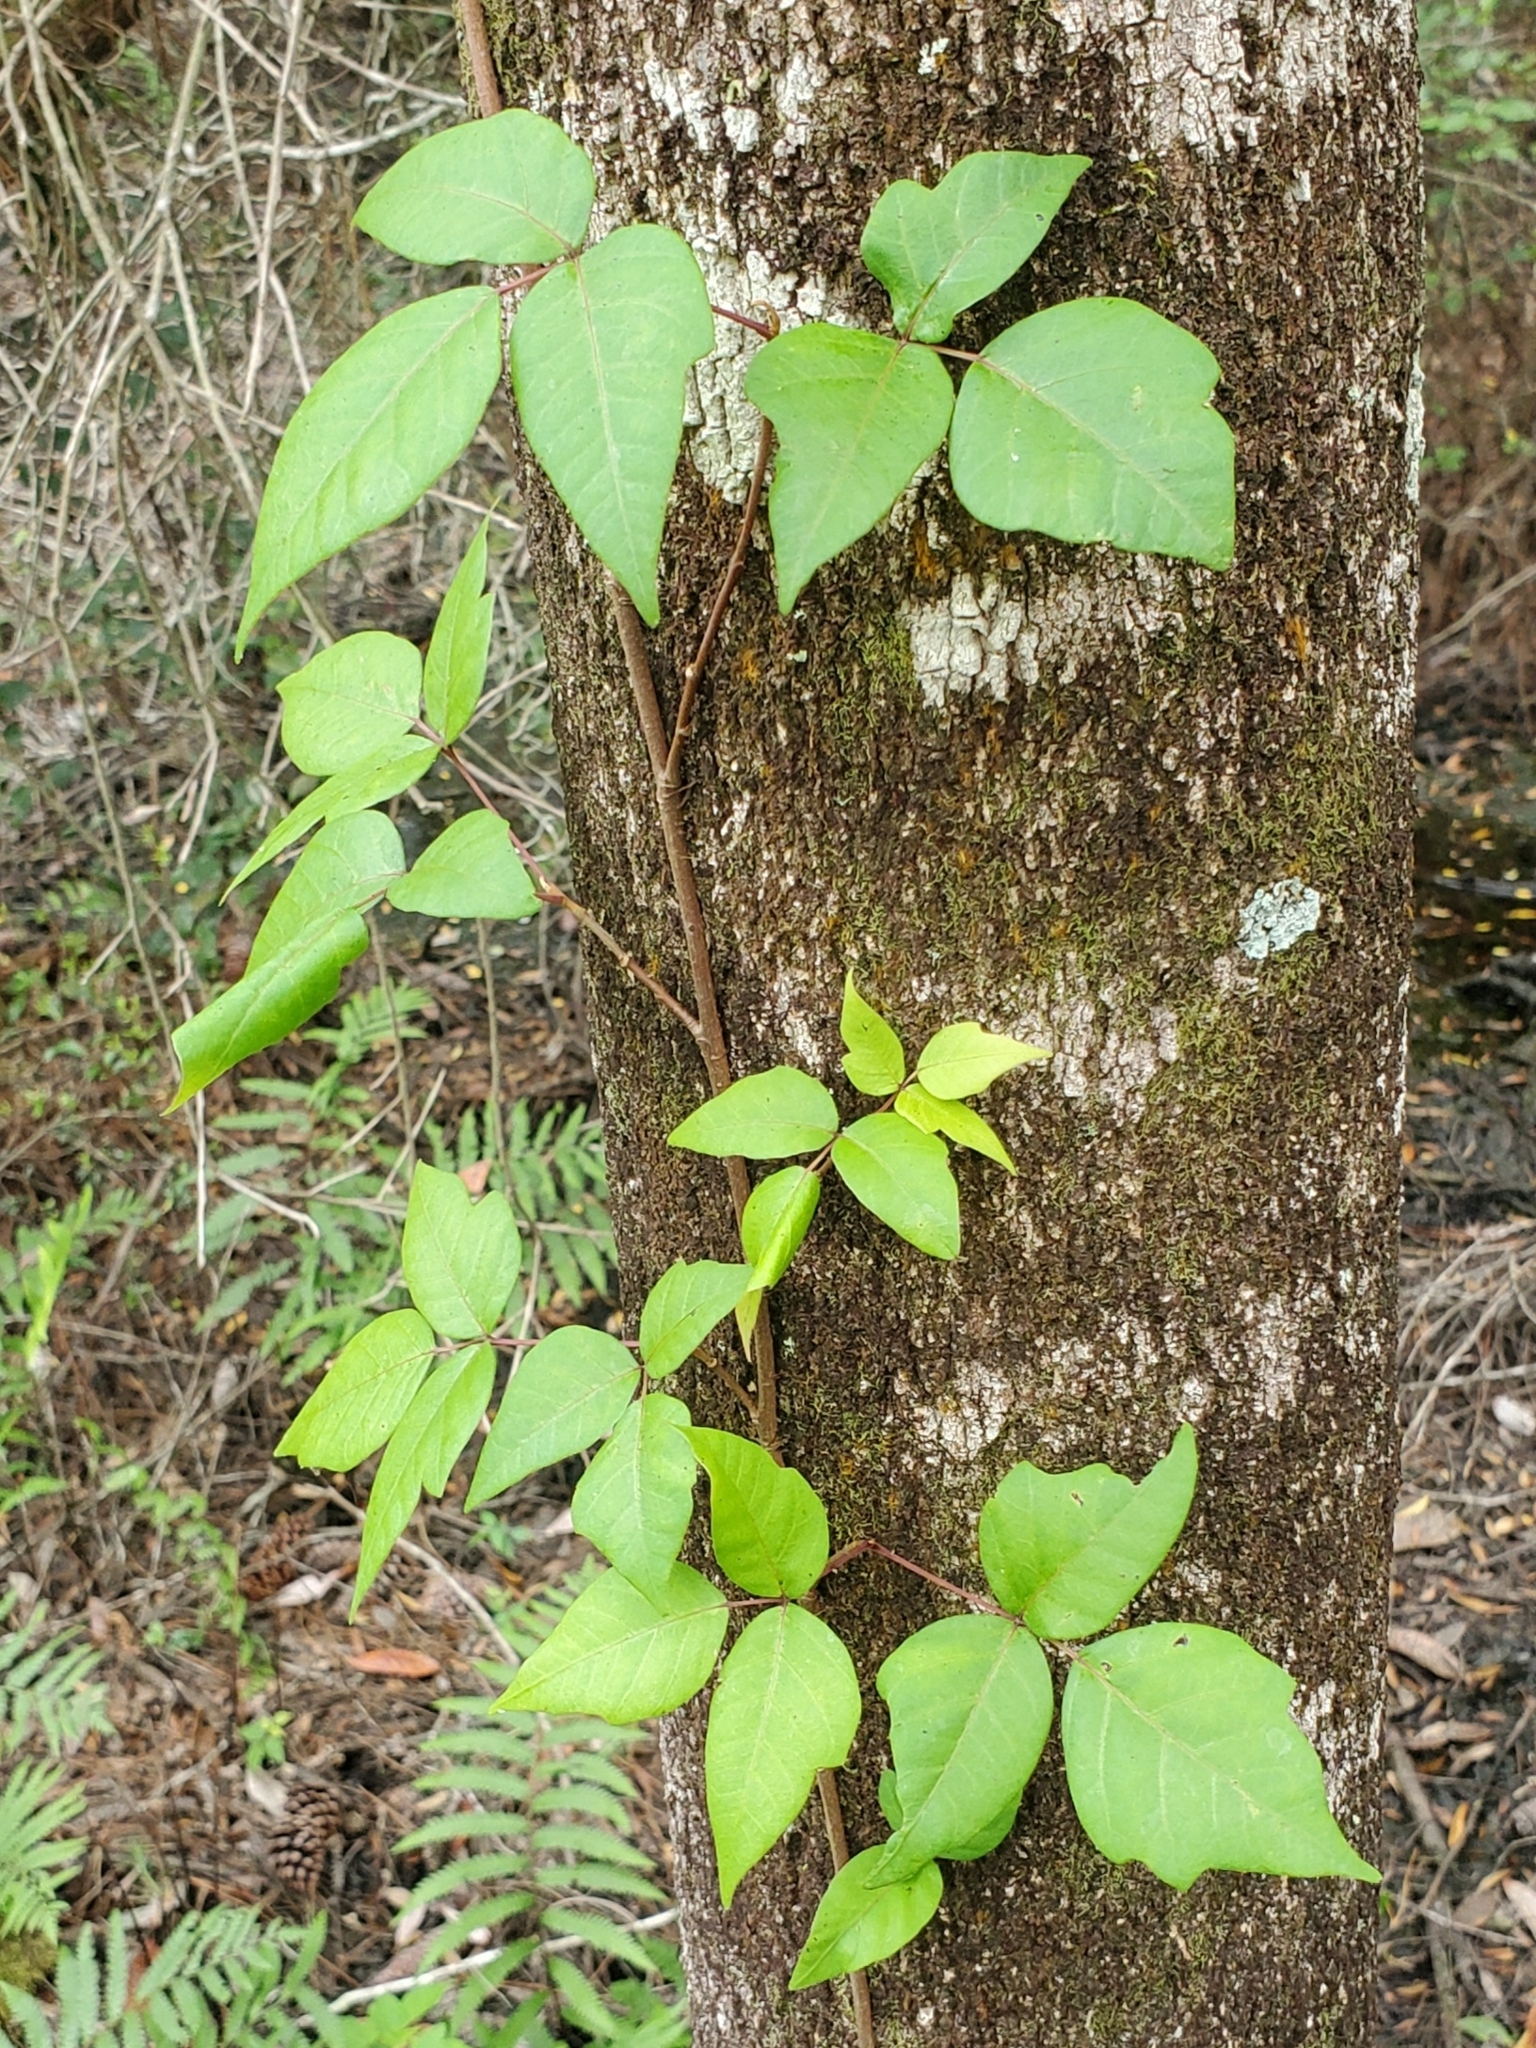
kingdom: Plantae
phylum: Tracheophyta
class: Magnoliopsida
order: Sapindales
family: Anacardiaceae
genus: Toxicodendron
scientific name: Toxicodendron radicans
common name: Poison ivy
